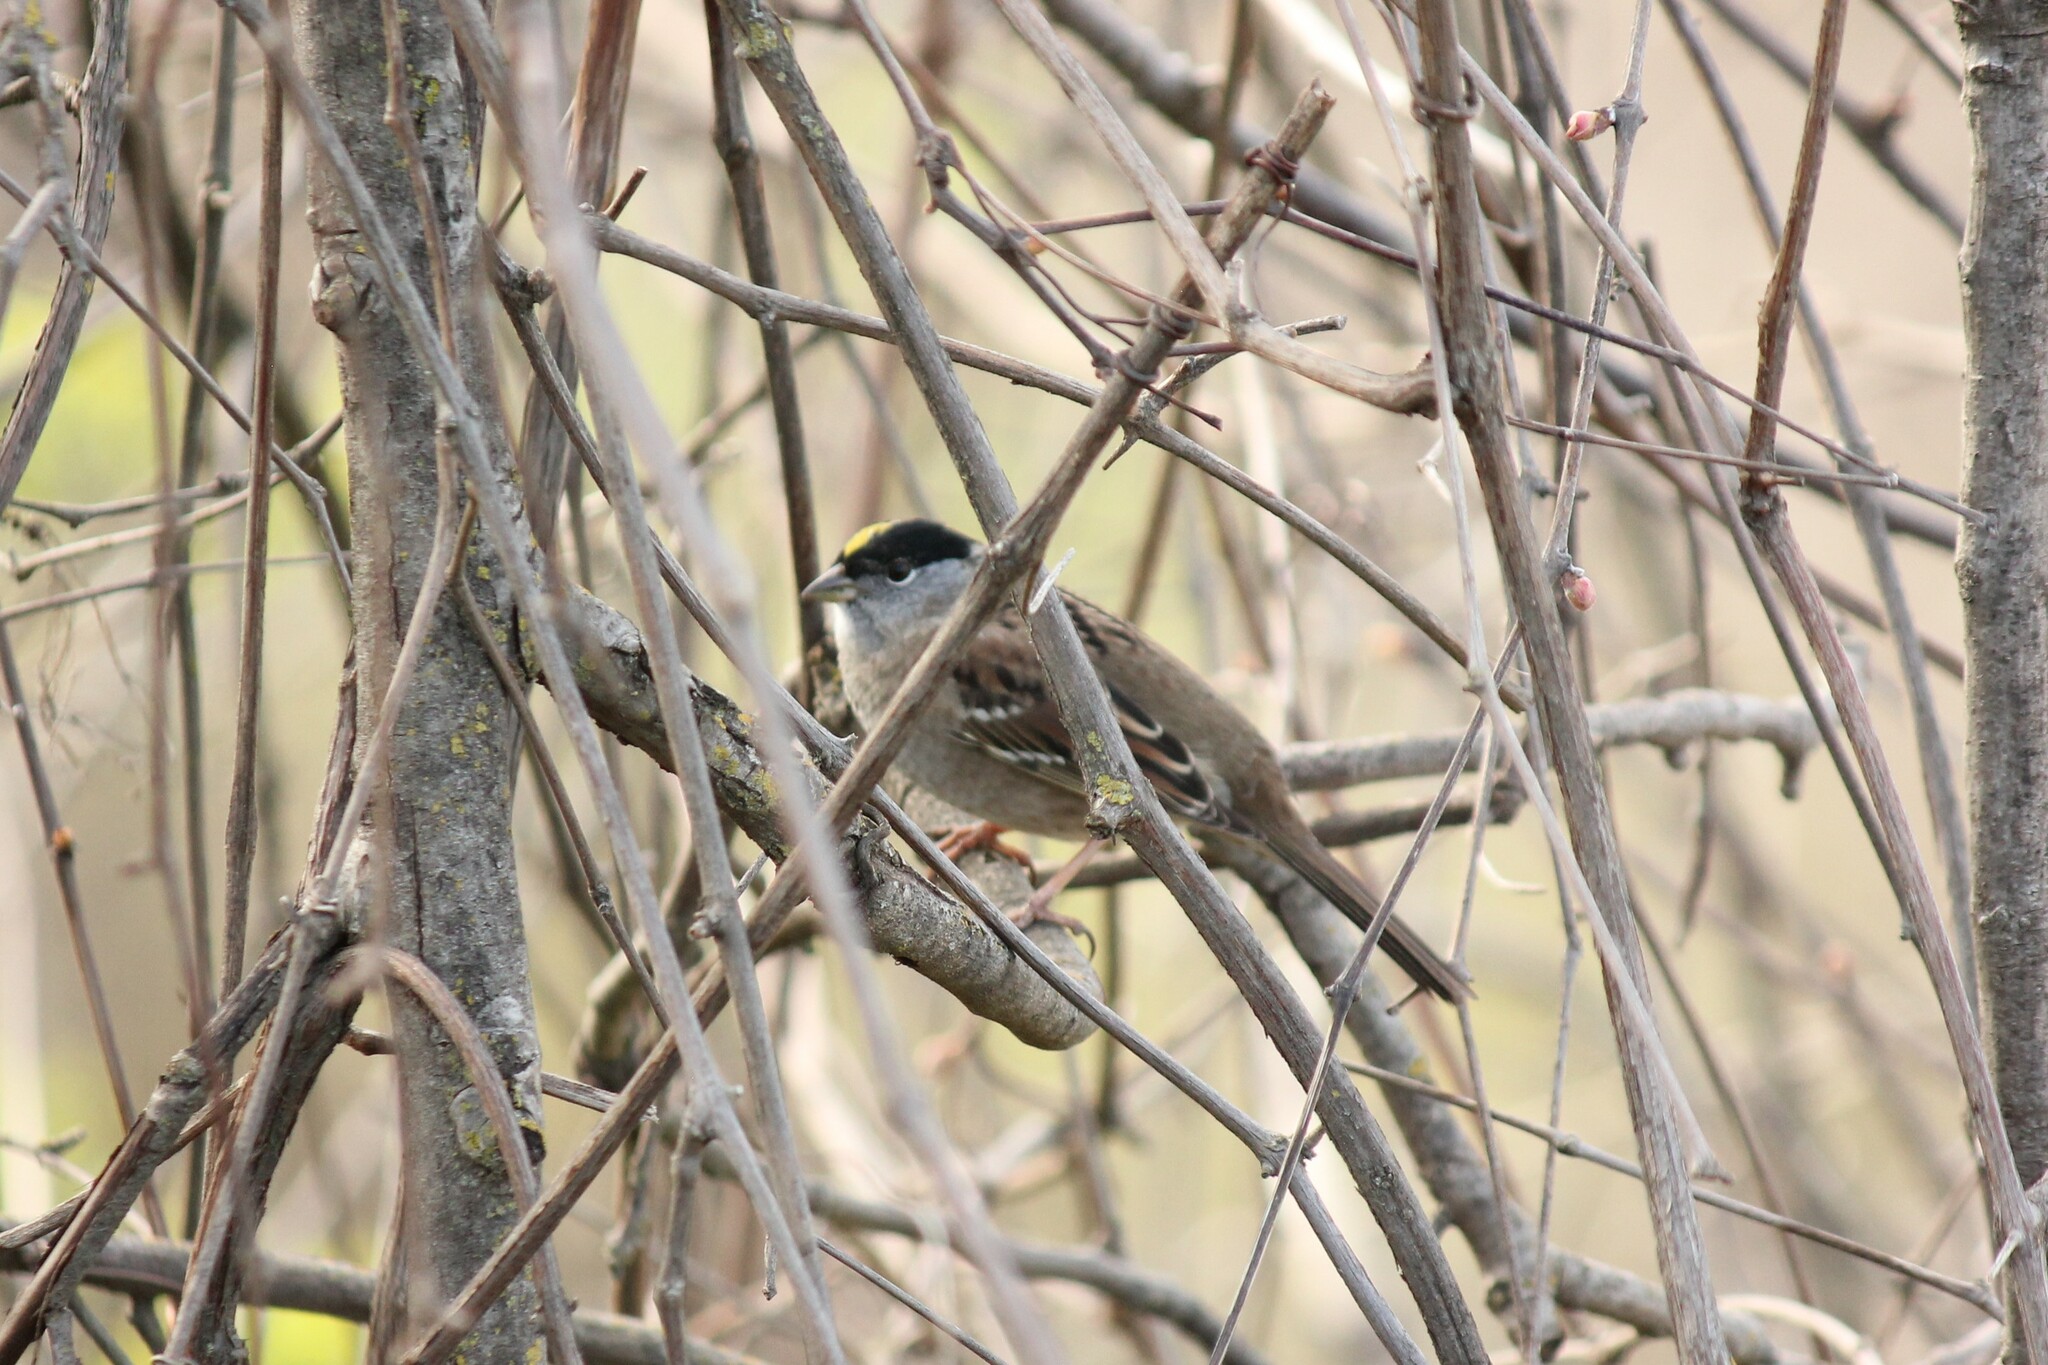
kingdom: Animalia
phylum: Chordata
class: Aves
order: Passeriformes
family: Passerellidae
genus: Zonotrichia
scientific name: Zonotrichia atricapilla
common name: Golden-crowned sparrow
